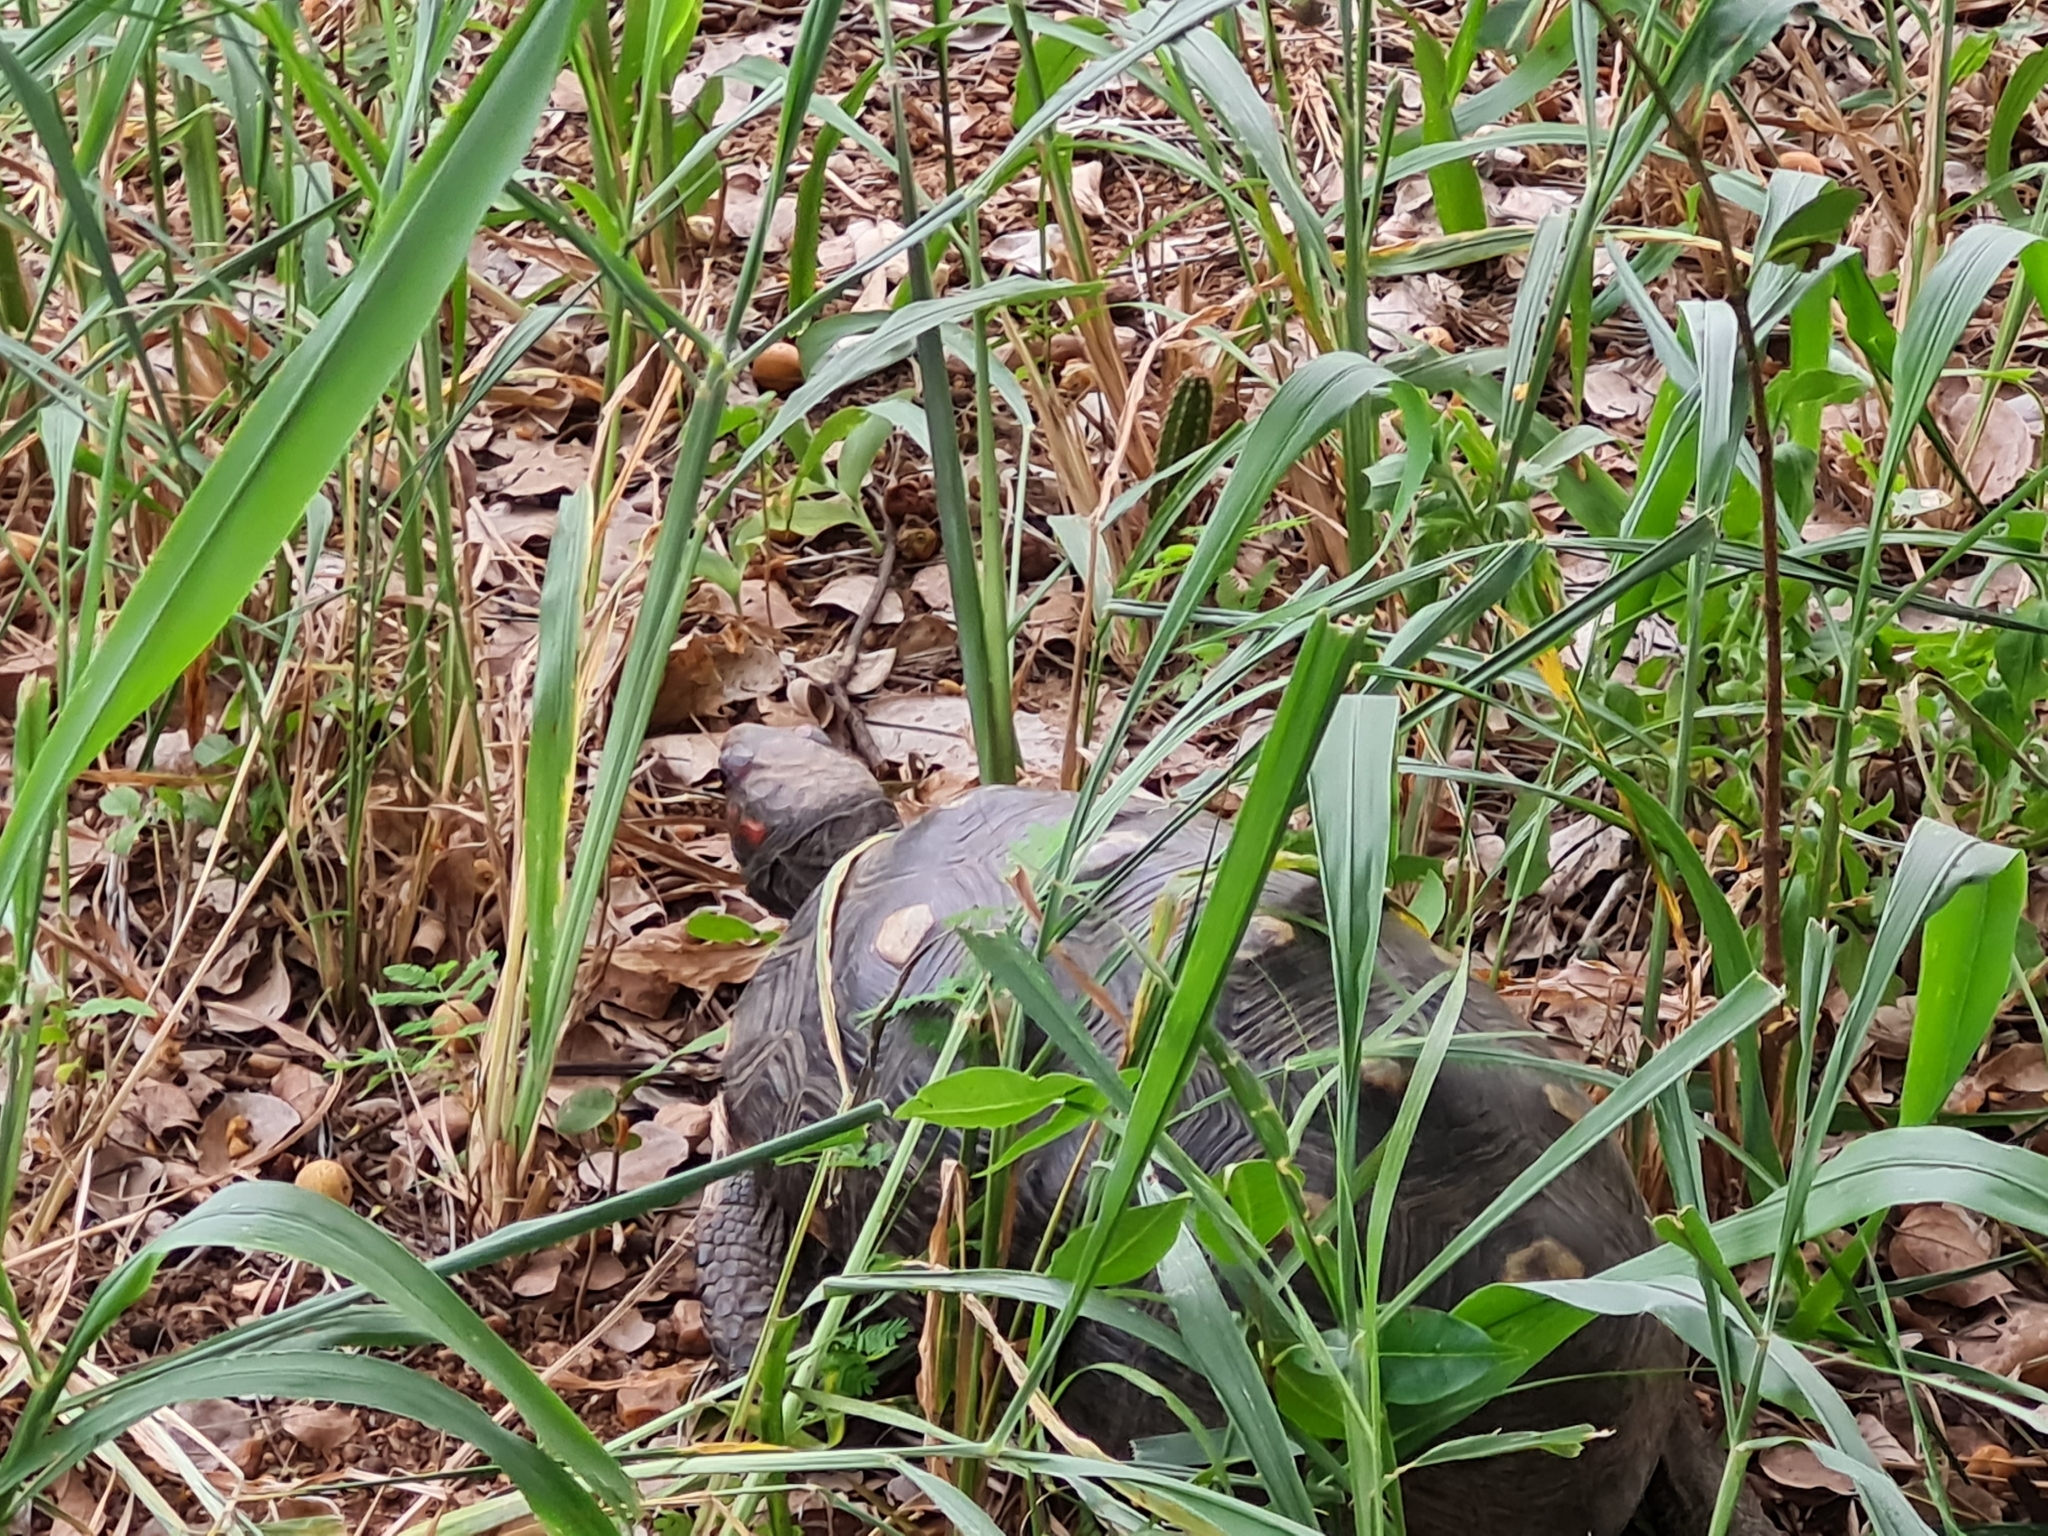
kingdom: Animalia
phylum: Chordata
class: Testudines
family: Testudinidae
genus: Chelonoidis
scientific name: Chelonoidis carbonarius
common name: Red-footed tortoise
